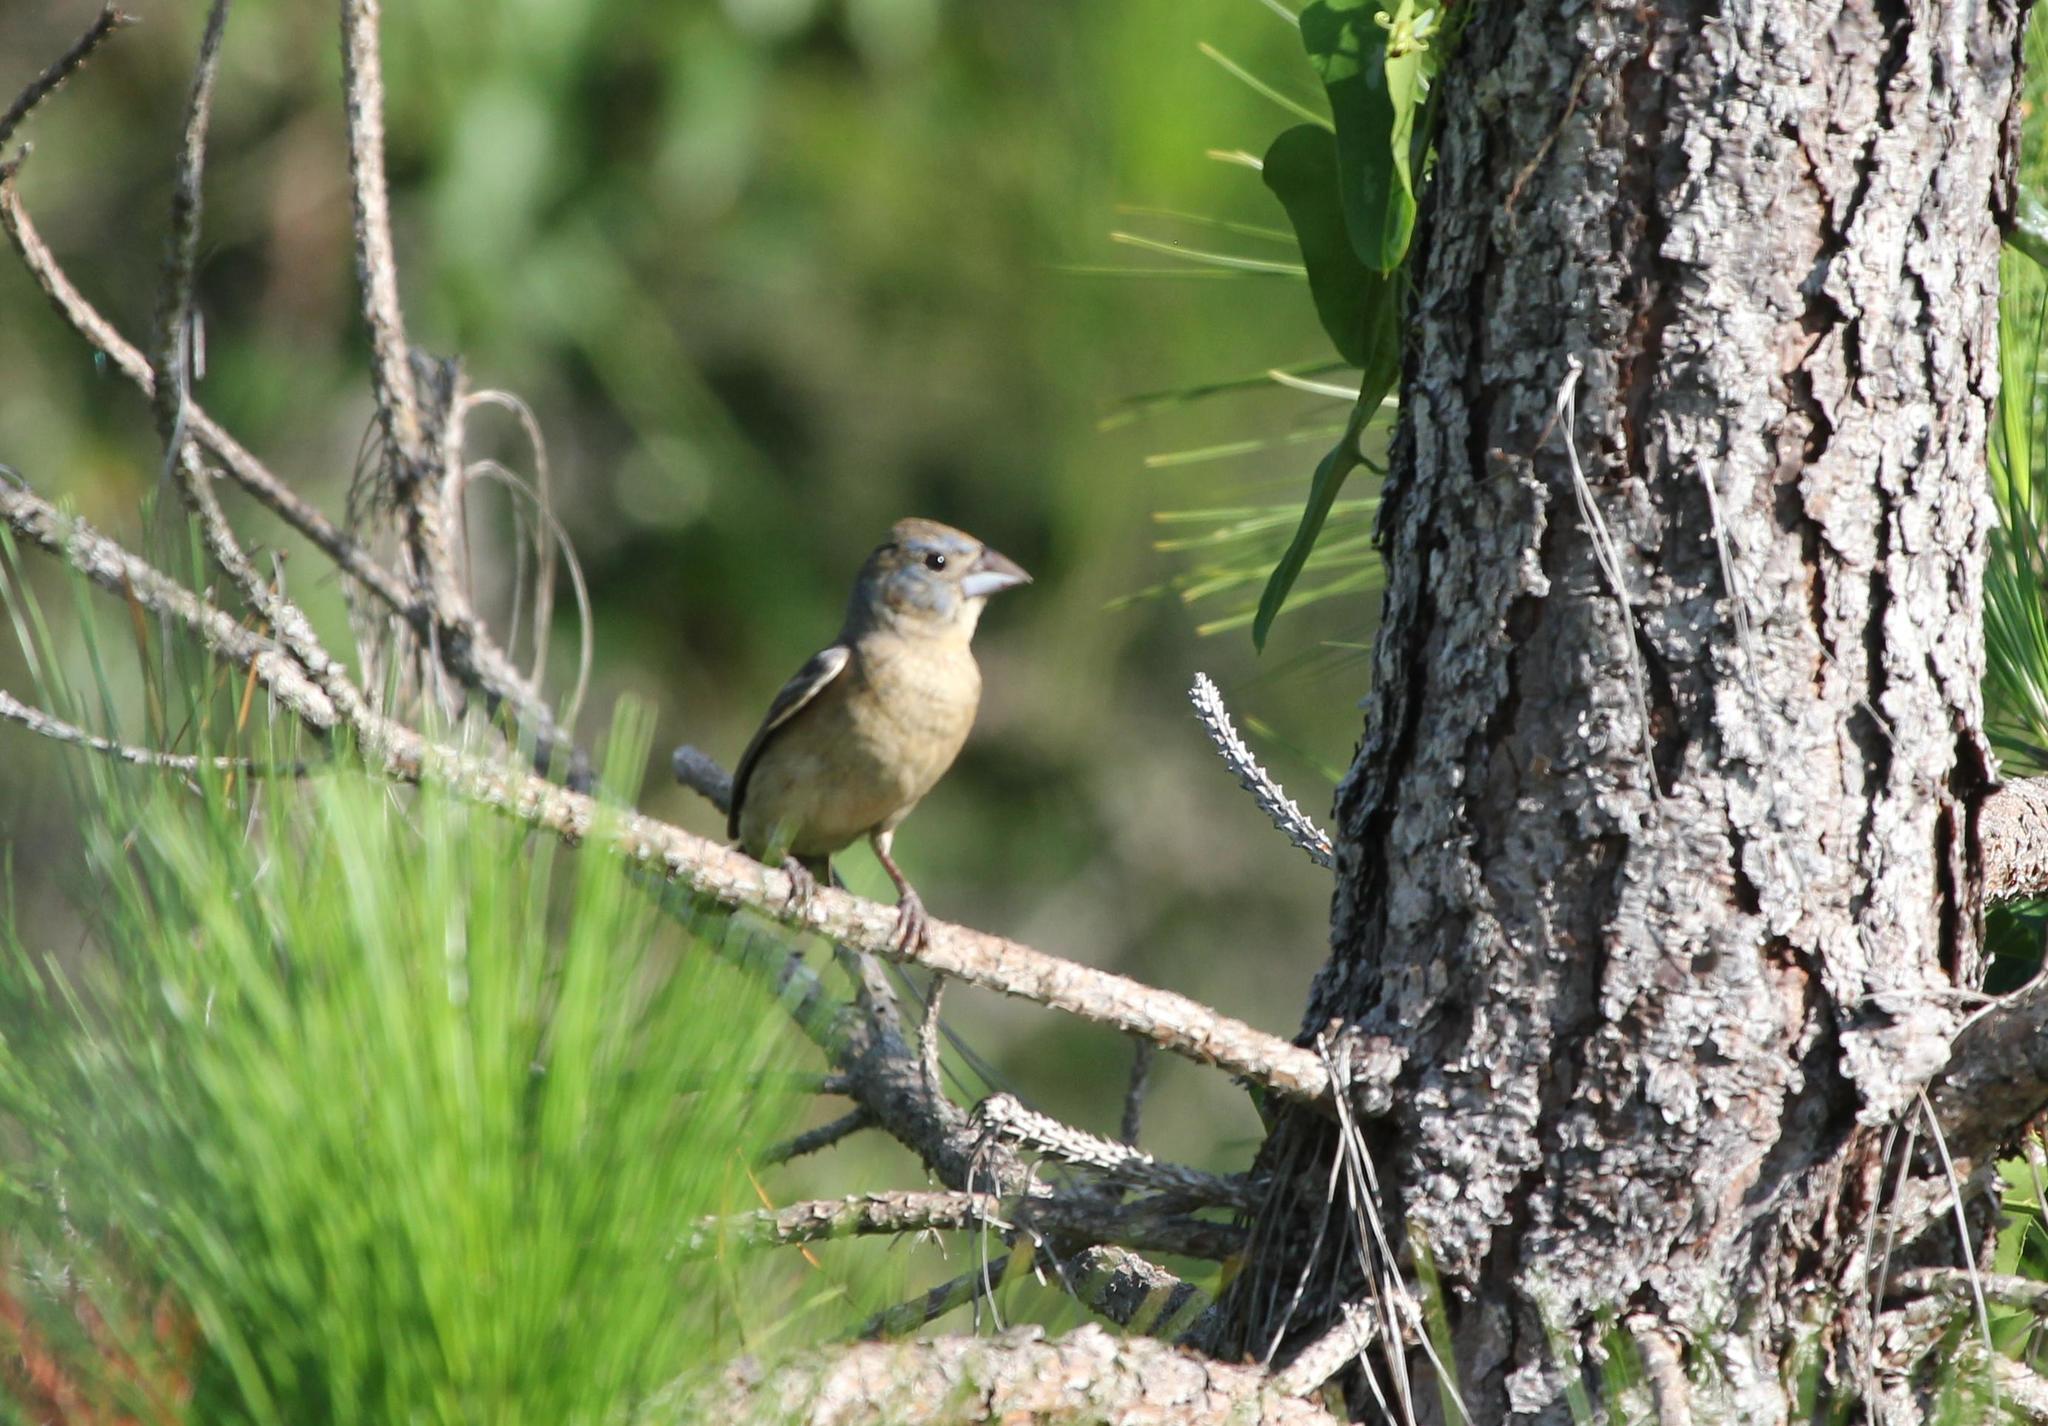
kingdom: Animalia
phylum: Chordata
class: Aves
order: Passeriformes
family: Cardinalidae
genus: Passerina
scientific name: Passerina caerulea
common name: Blue grosbeak
